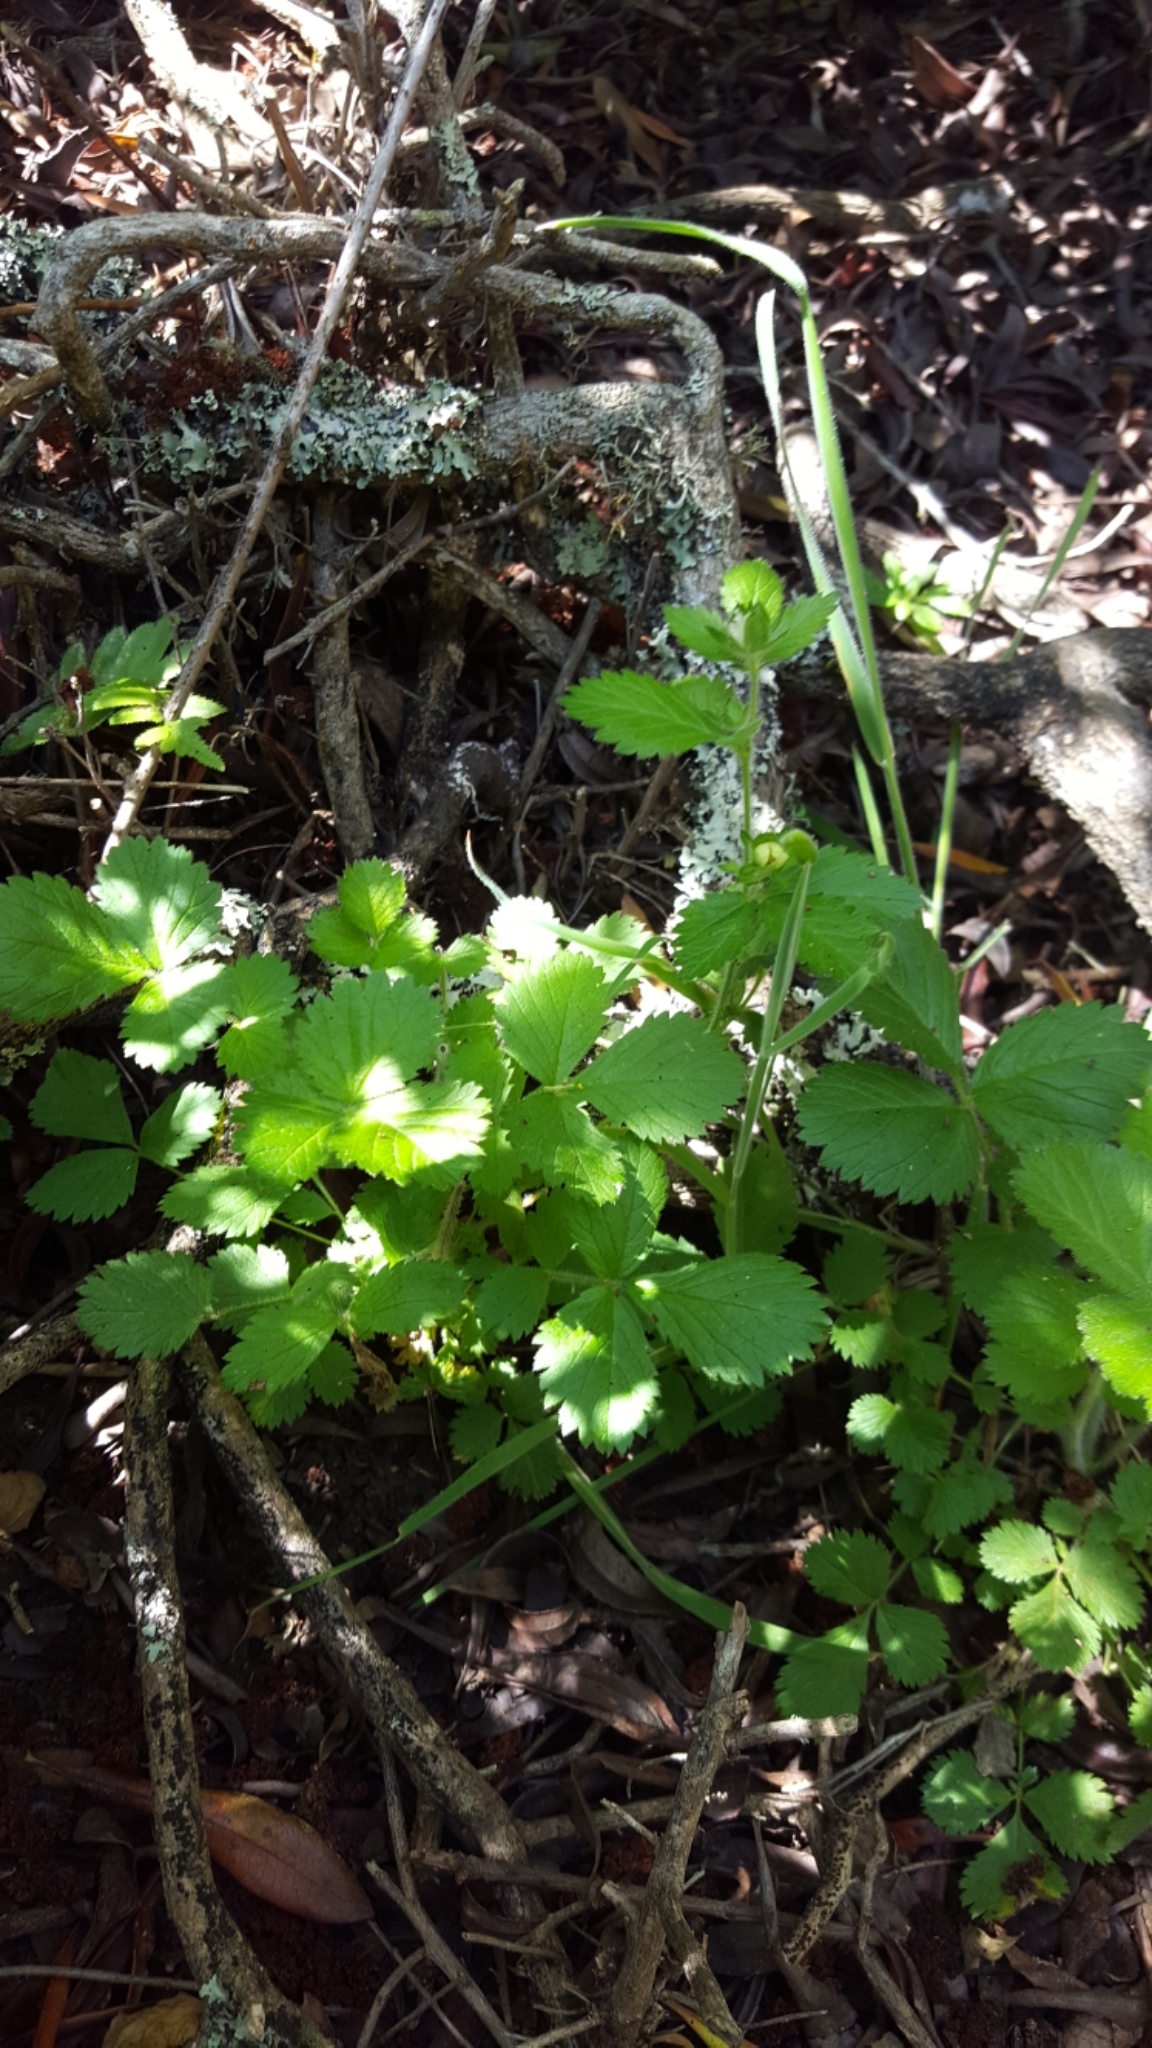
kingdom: Plantae
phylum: Tracheophyta
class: Magnoliopsida
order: Rosales
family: Rosaceae
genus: Fragaria
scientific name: Fragaria vesca
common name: Wild strawberry
